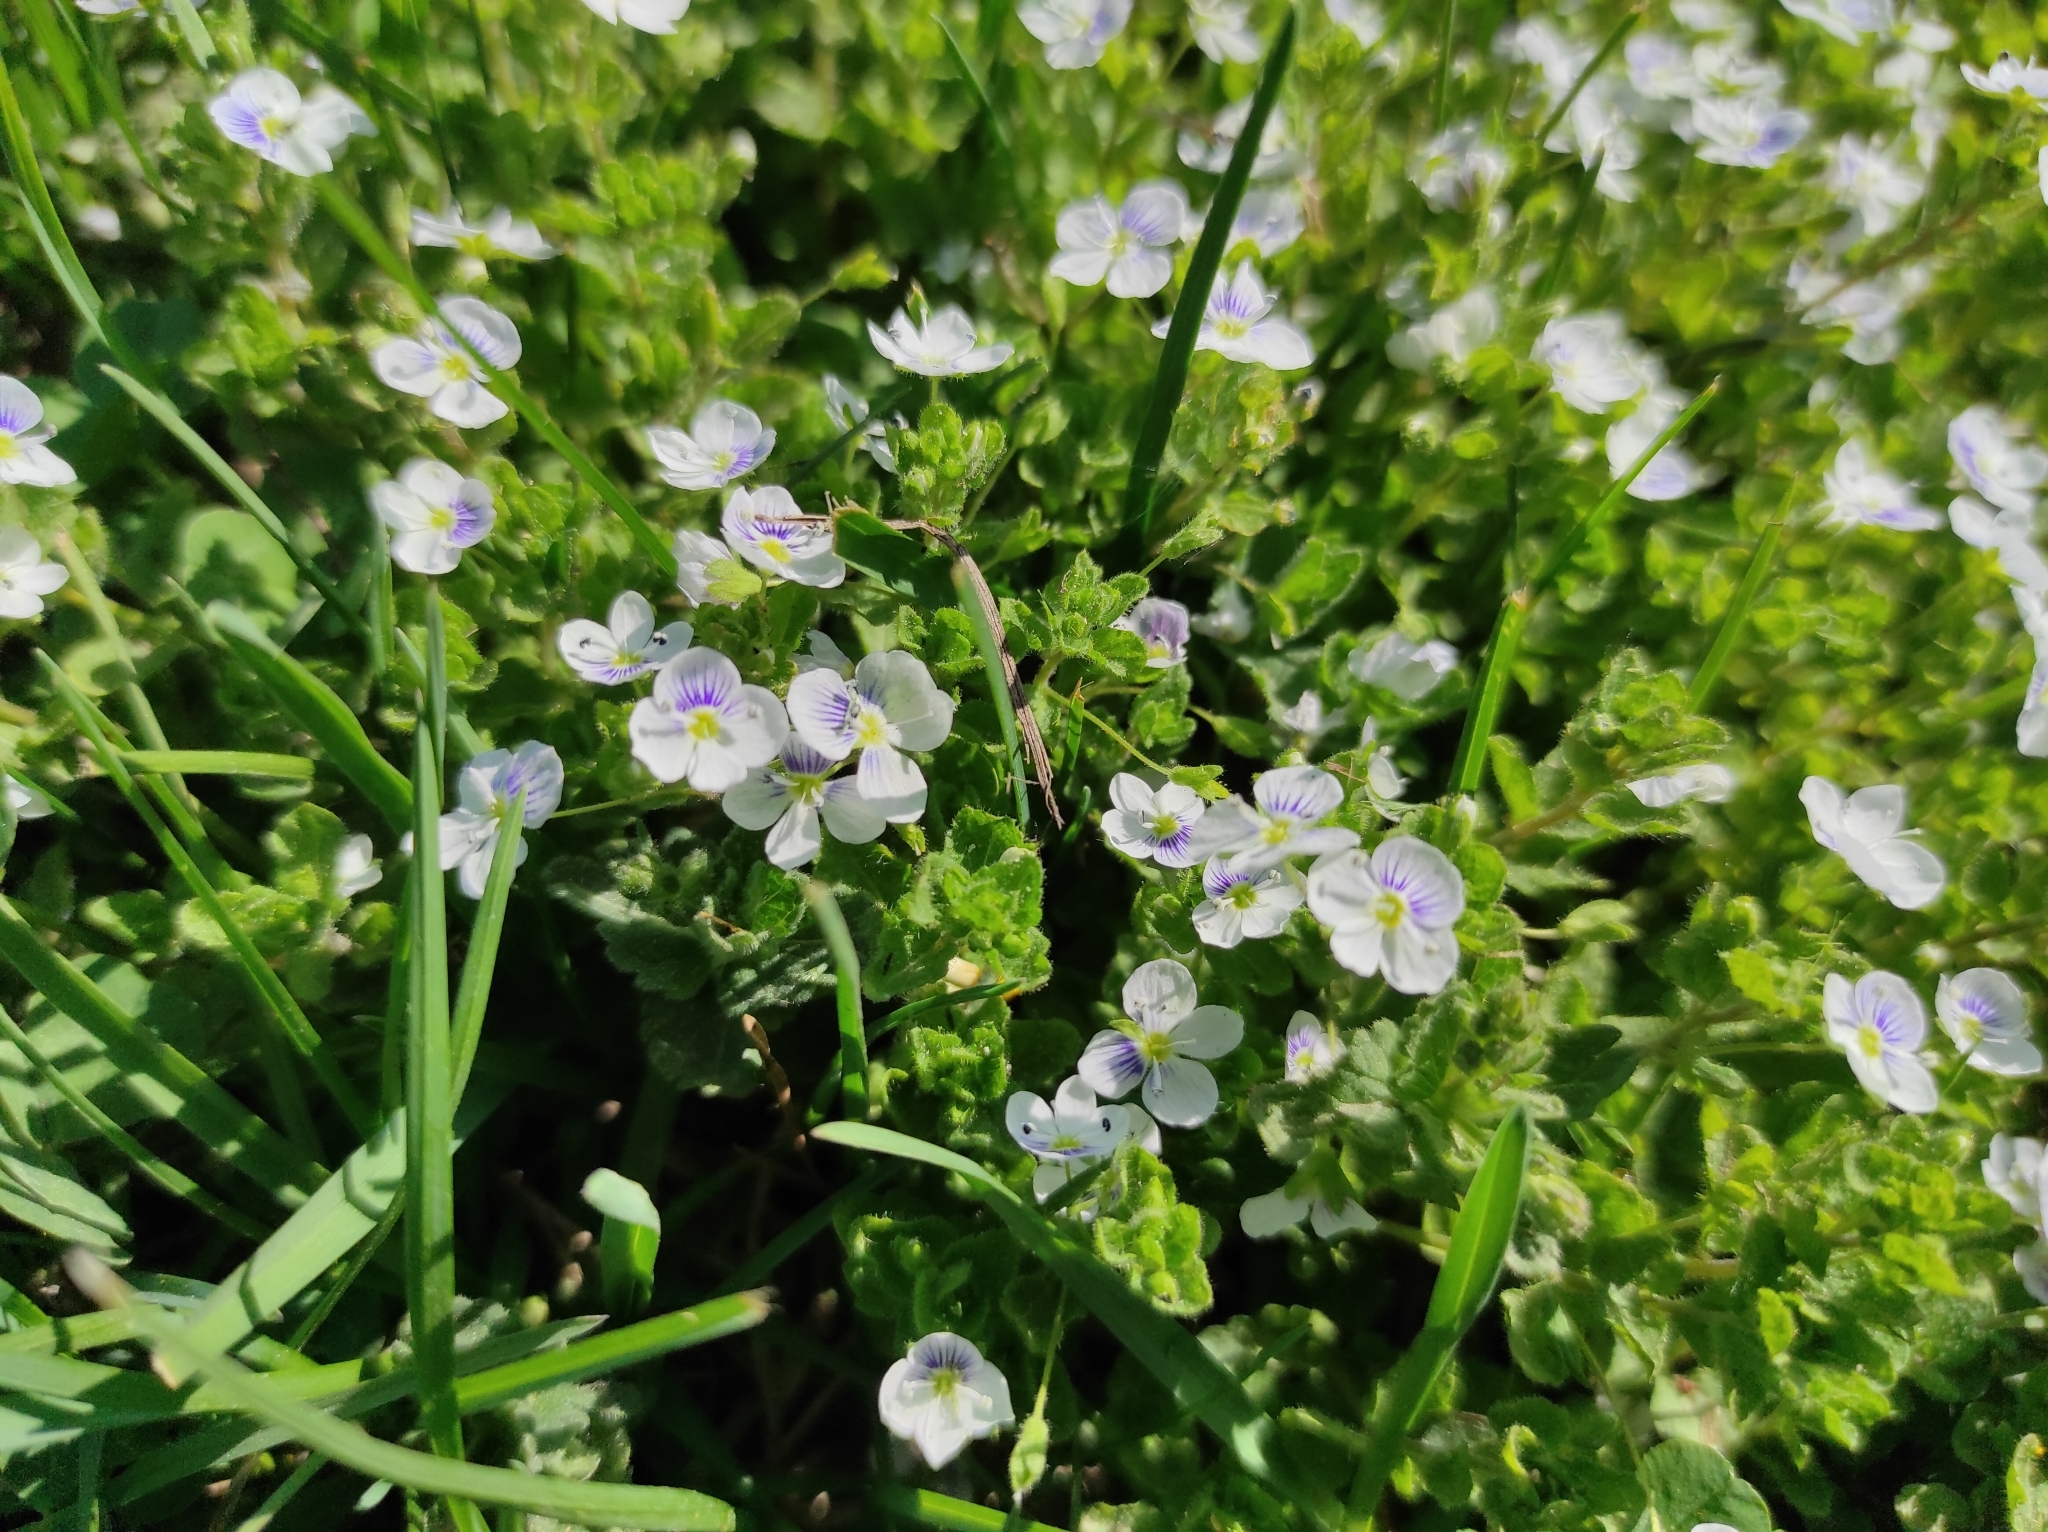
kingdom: Plantae
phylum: Tracheophyta
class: Magnoliopsida
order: Lamiales
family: Plantaginaceae
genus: Veronica
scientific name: Veronica filiformis
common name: Slender speedwell
